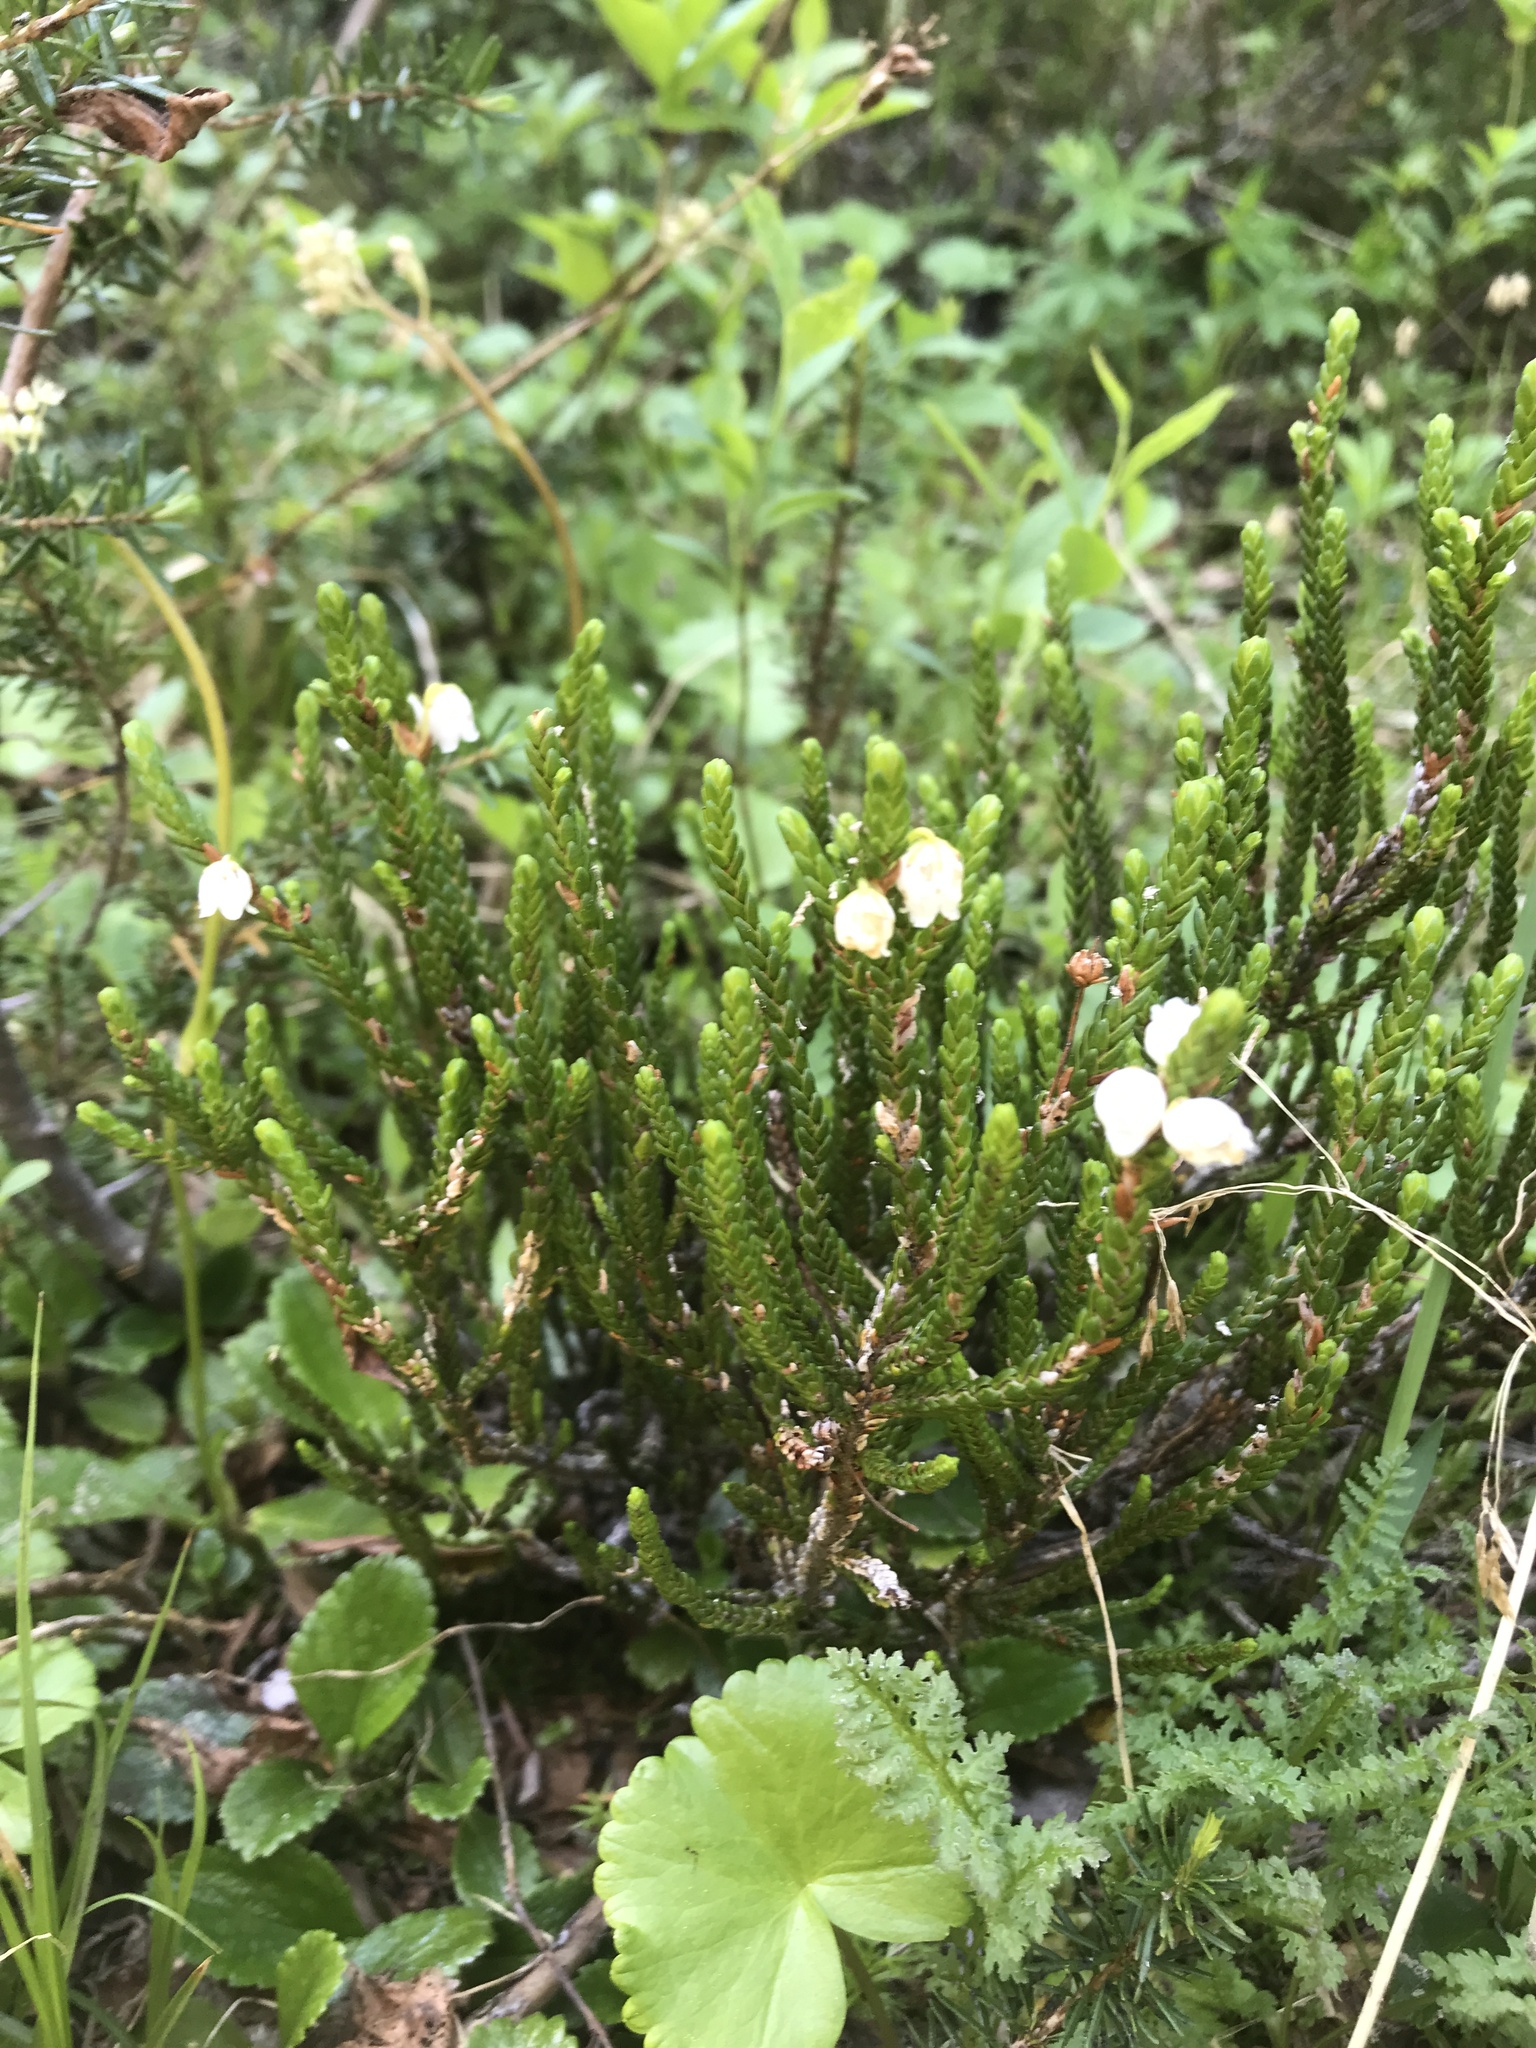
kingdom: Plantae
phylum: Tracheophyta
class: Magnoliopsida
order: Ericales
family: Ericaceae
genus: Cassiope
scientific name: Cassiope mertensiana
